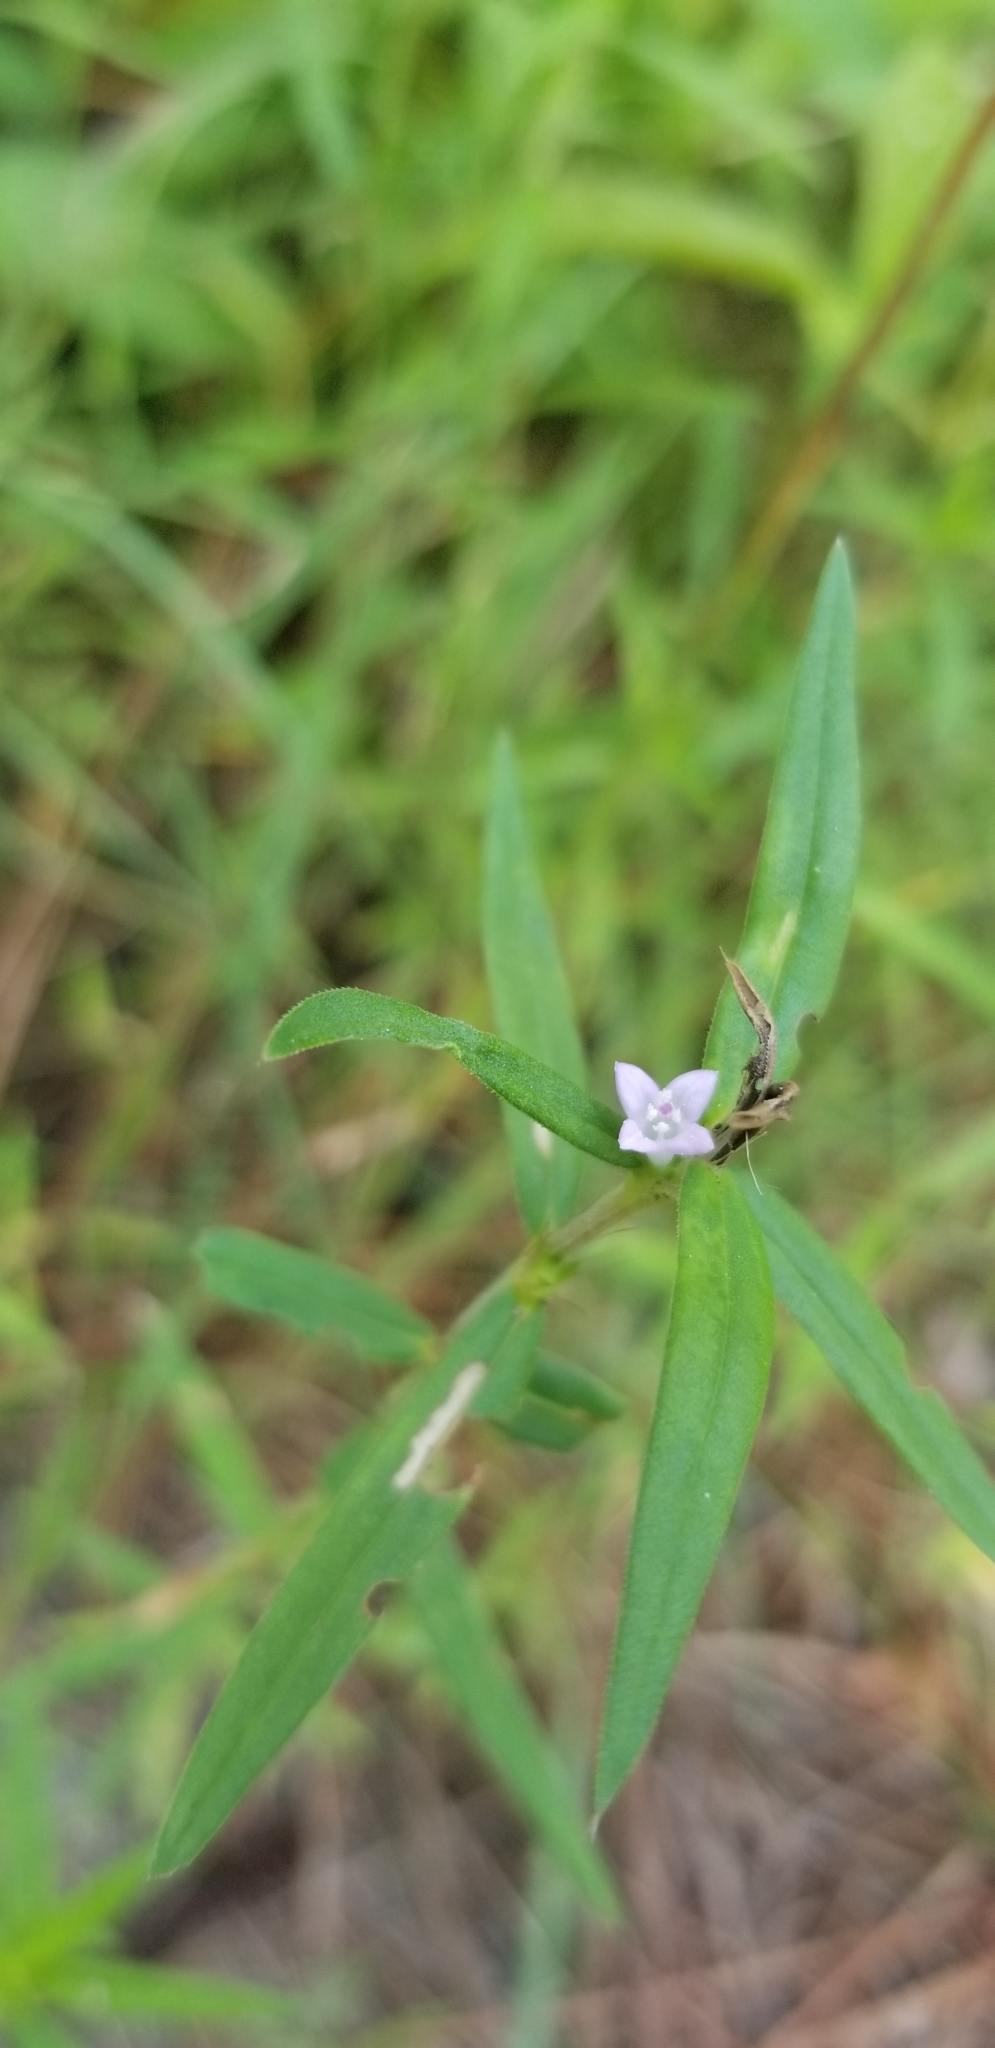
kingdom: Plantae
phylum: Tracheophyta
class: Magnoliopsida
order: Gentianales
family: Rubiaceae
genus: Hexasepalum
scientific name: Hexasepalum teres
